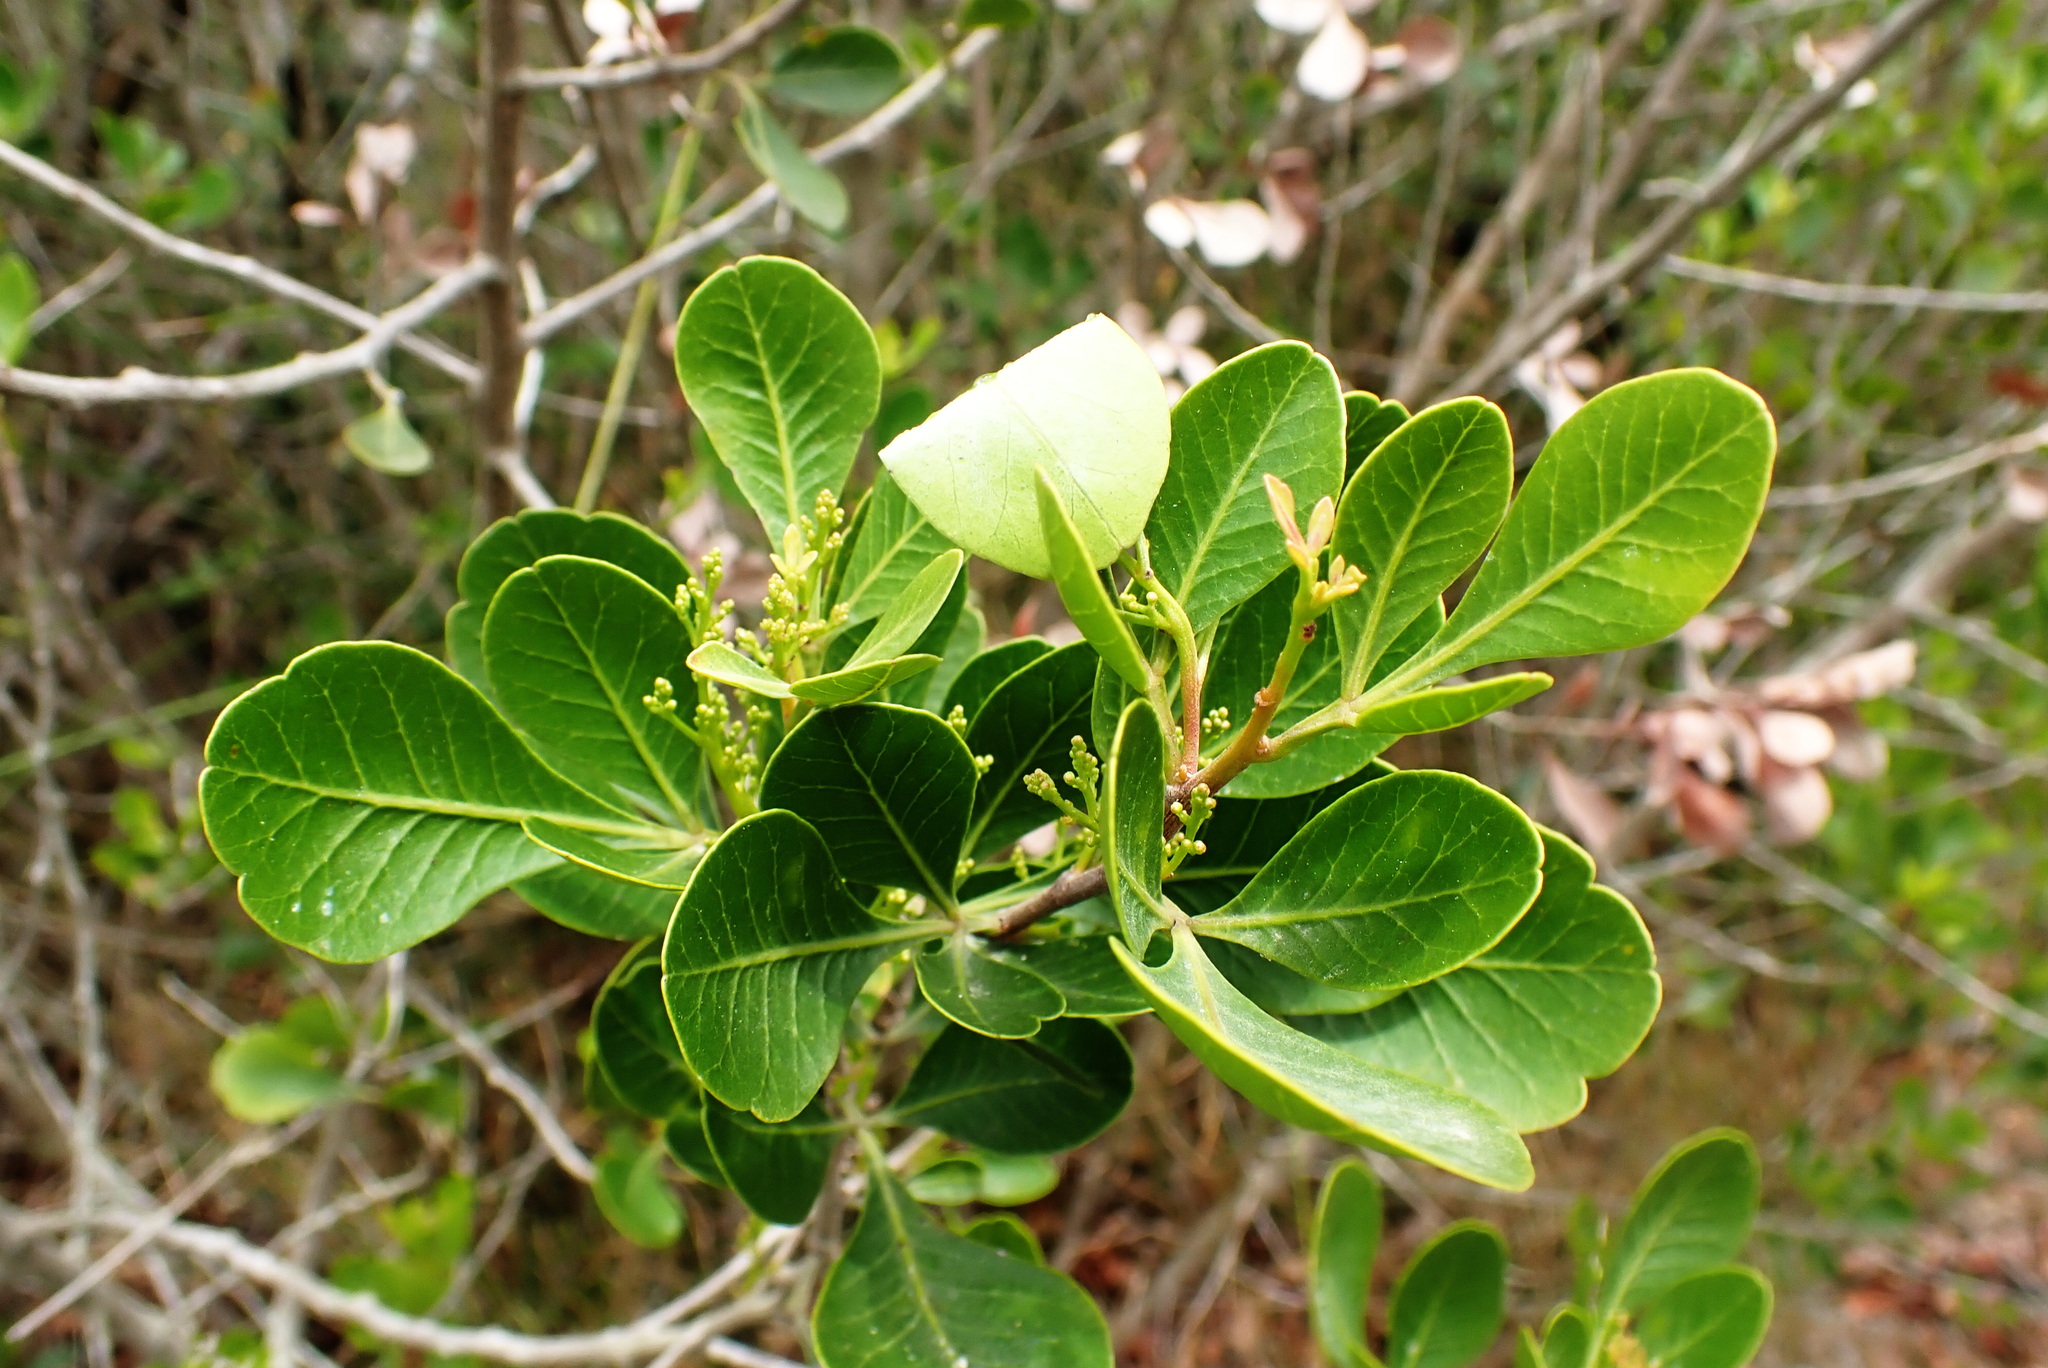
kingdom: Plantae
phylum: Tracheophyta
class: Magnoliopsida
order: Sapindales
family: Anacardiaceae
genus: Searsia
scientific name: Searsia lucida
